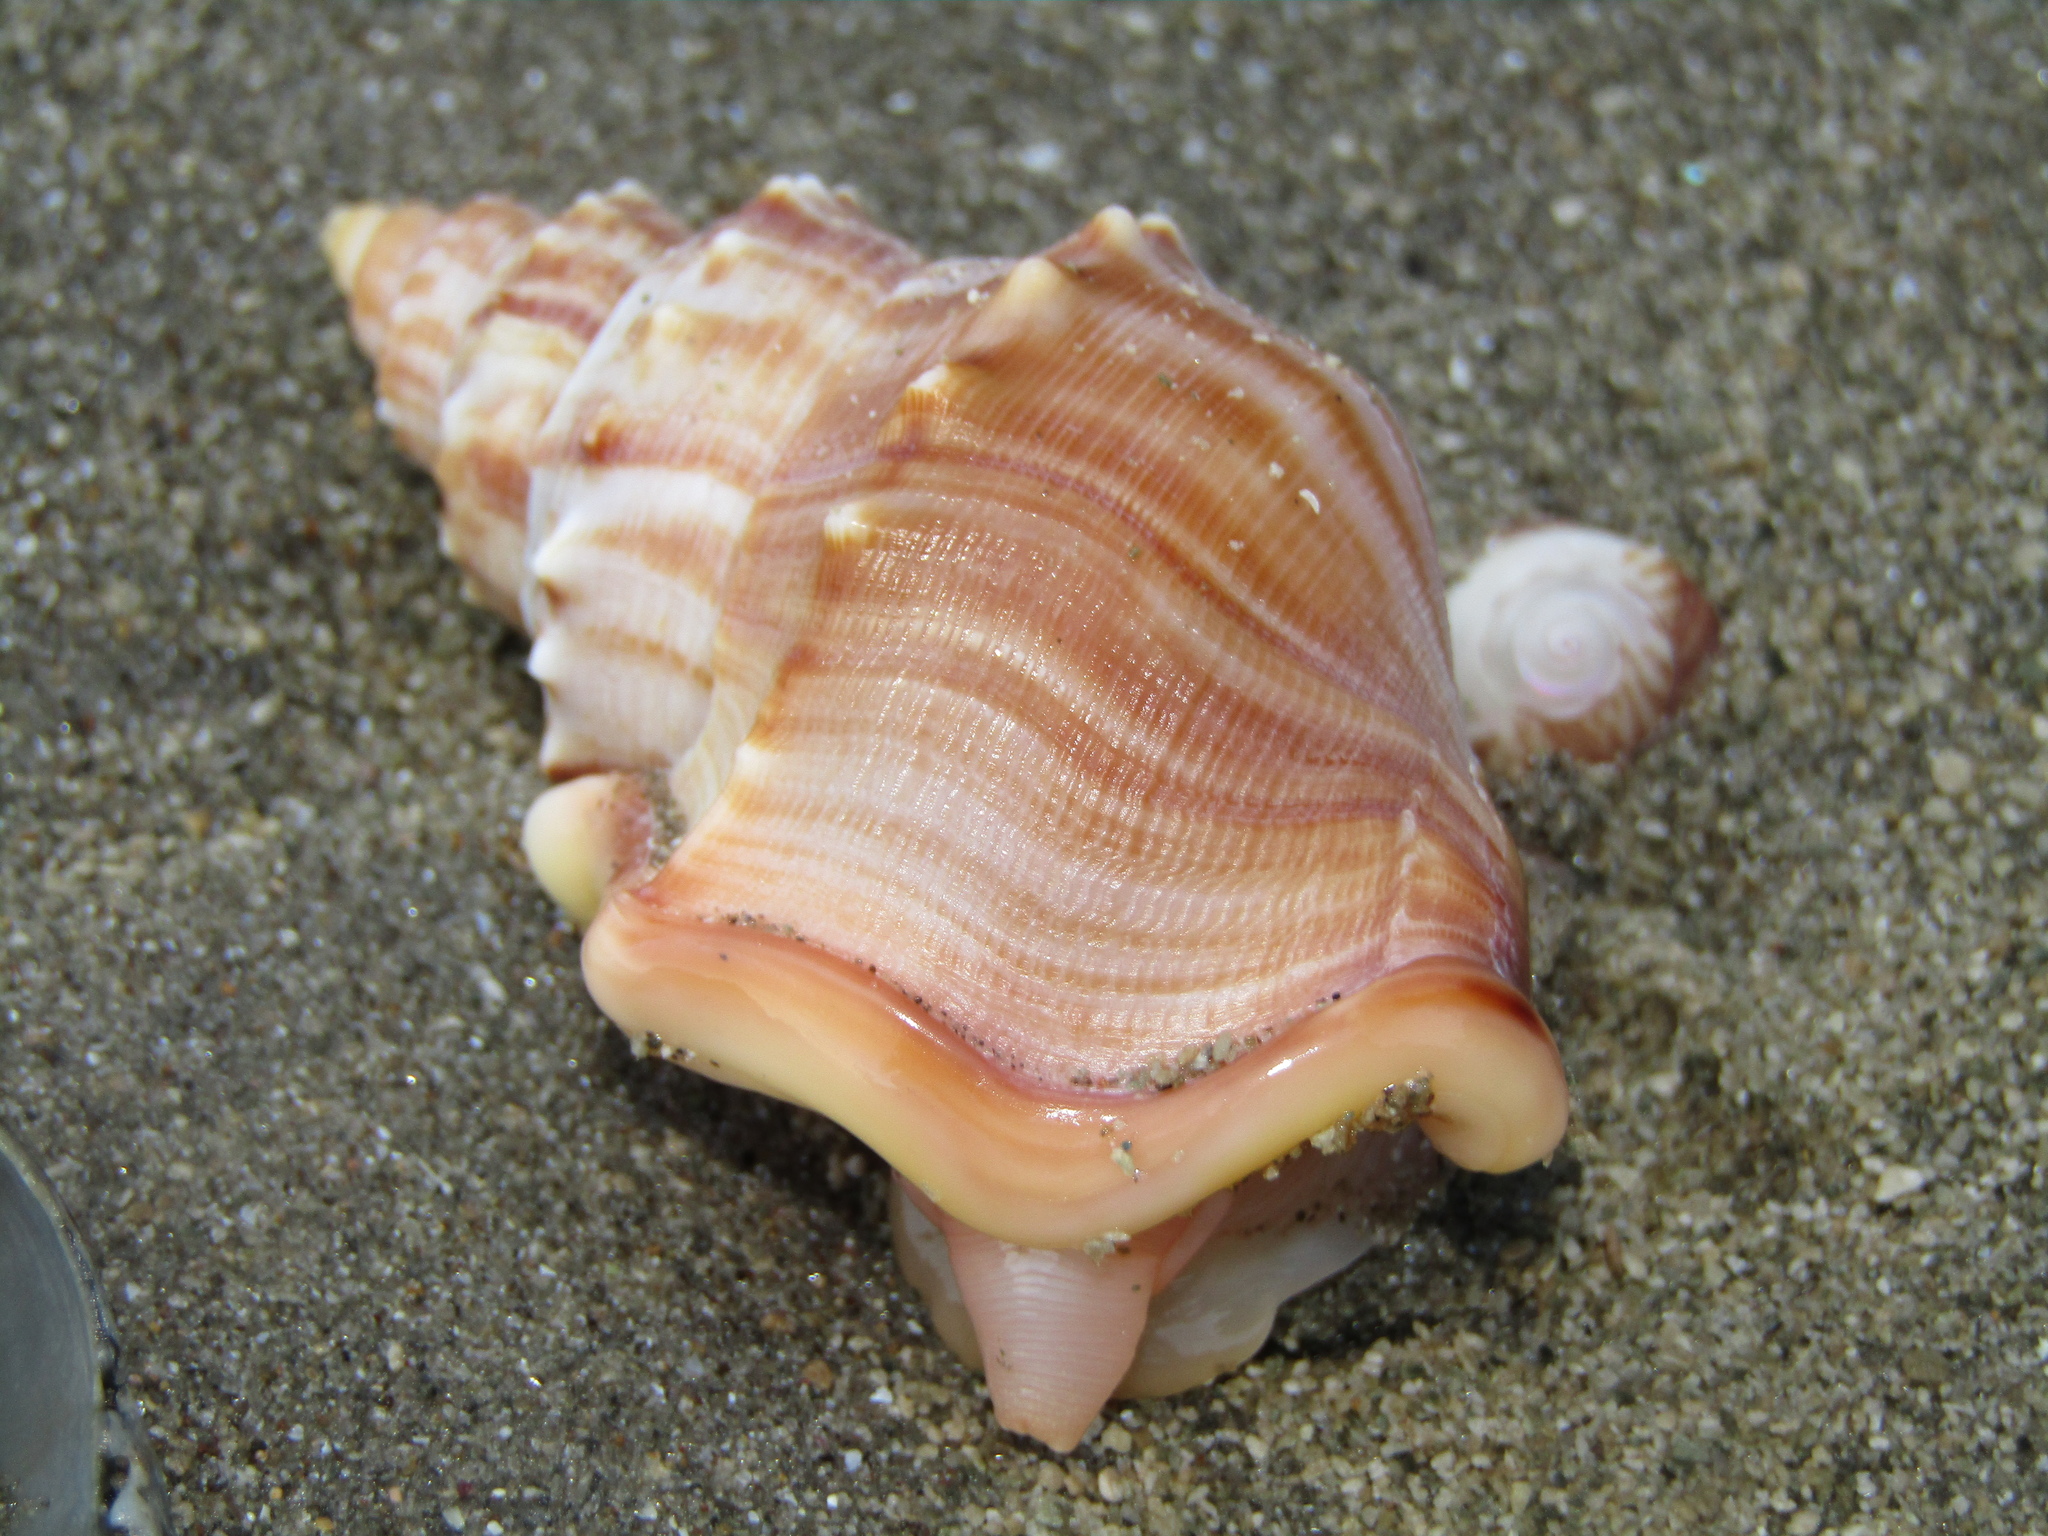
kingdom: Animalia
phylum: Mollusca
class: Gastropoda
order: Littorinimorpha
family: Struthiolariidae
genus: Struthiolaria
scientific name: Struthiolaria papulosa
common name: Large ostrich foot
